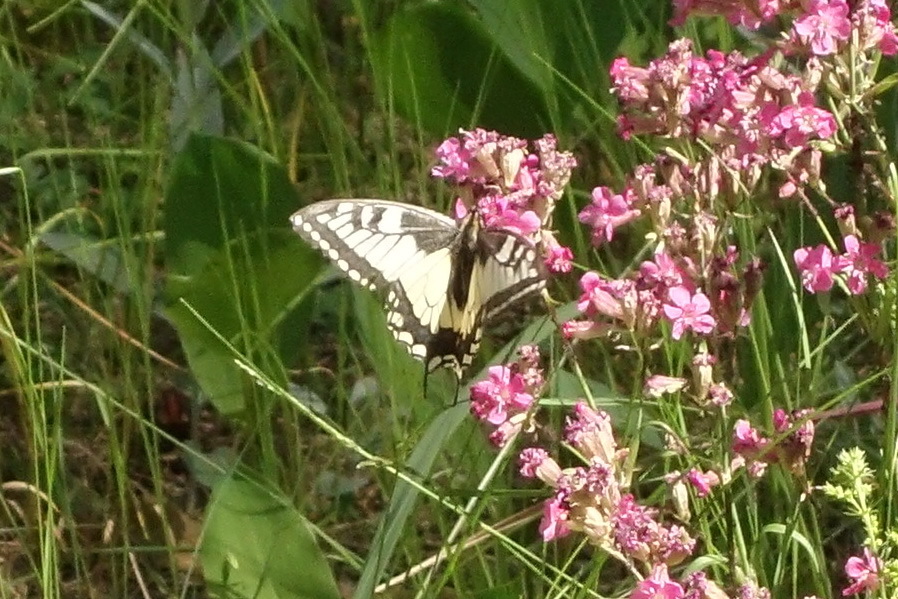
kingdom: Animalia
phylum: Arthropoda
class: Insecta
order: Lepidoptera
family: Papilionidae
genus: Papilio
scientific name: Papilio machaon
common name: Swallowtail
